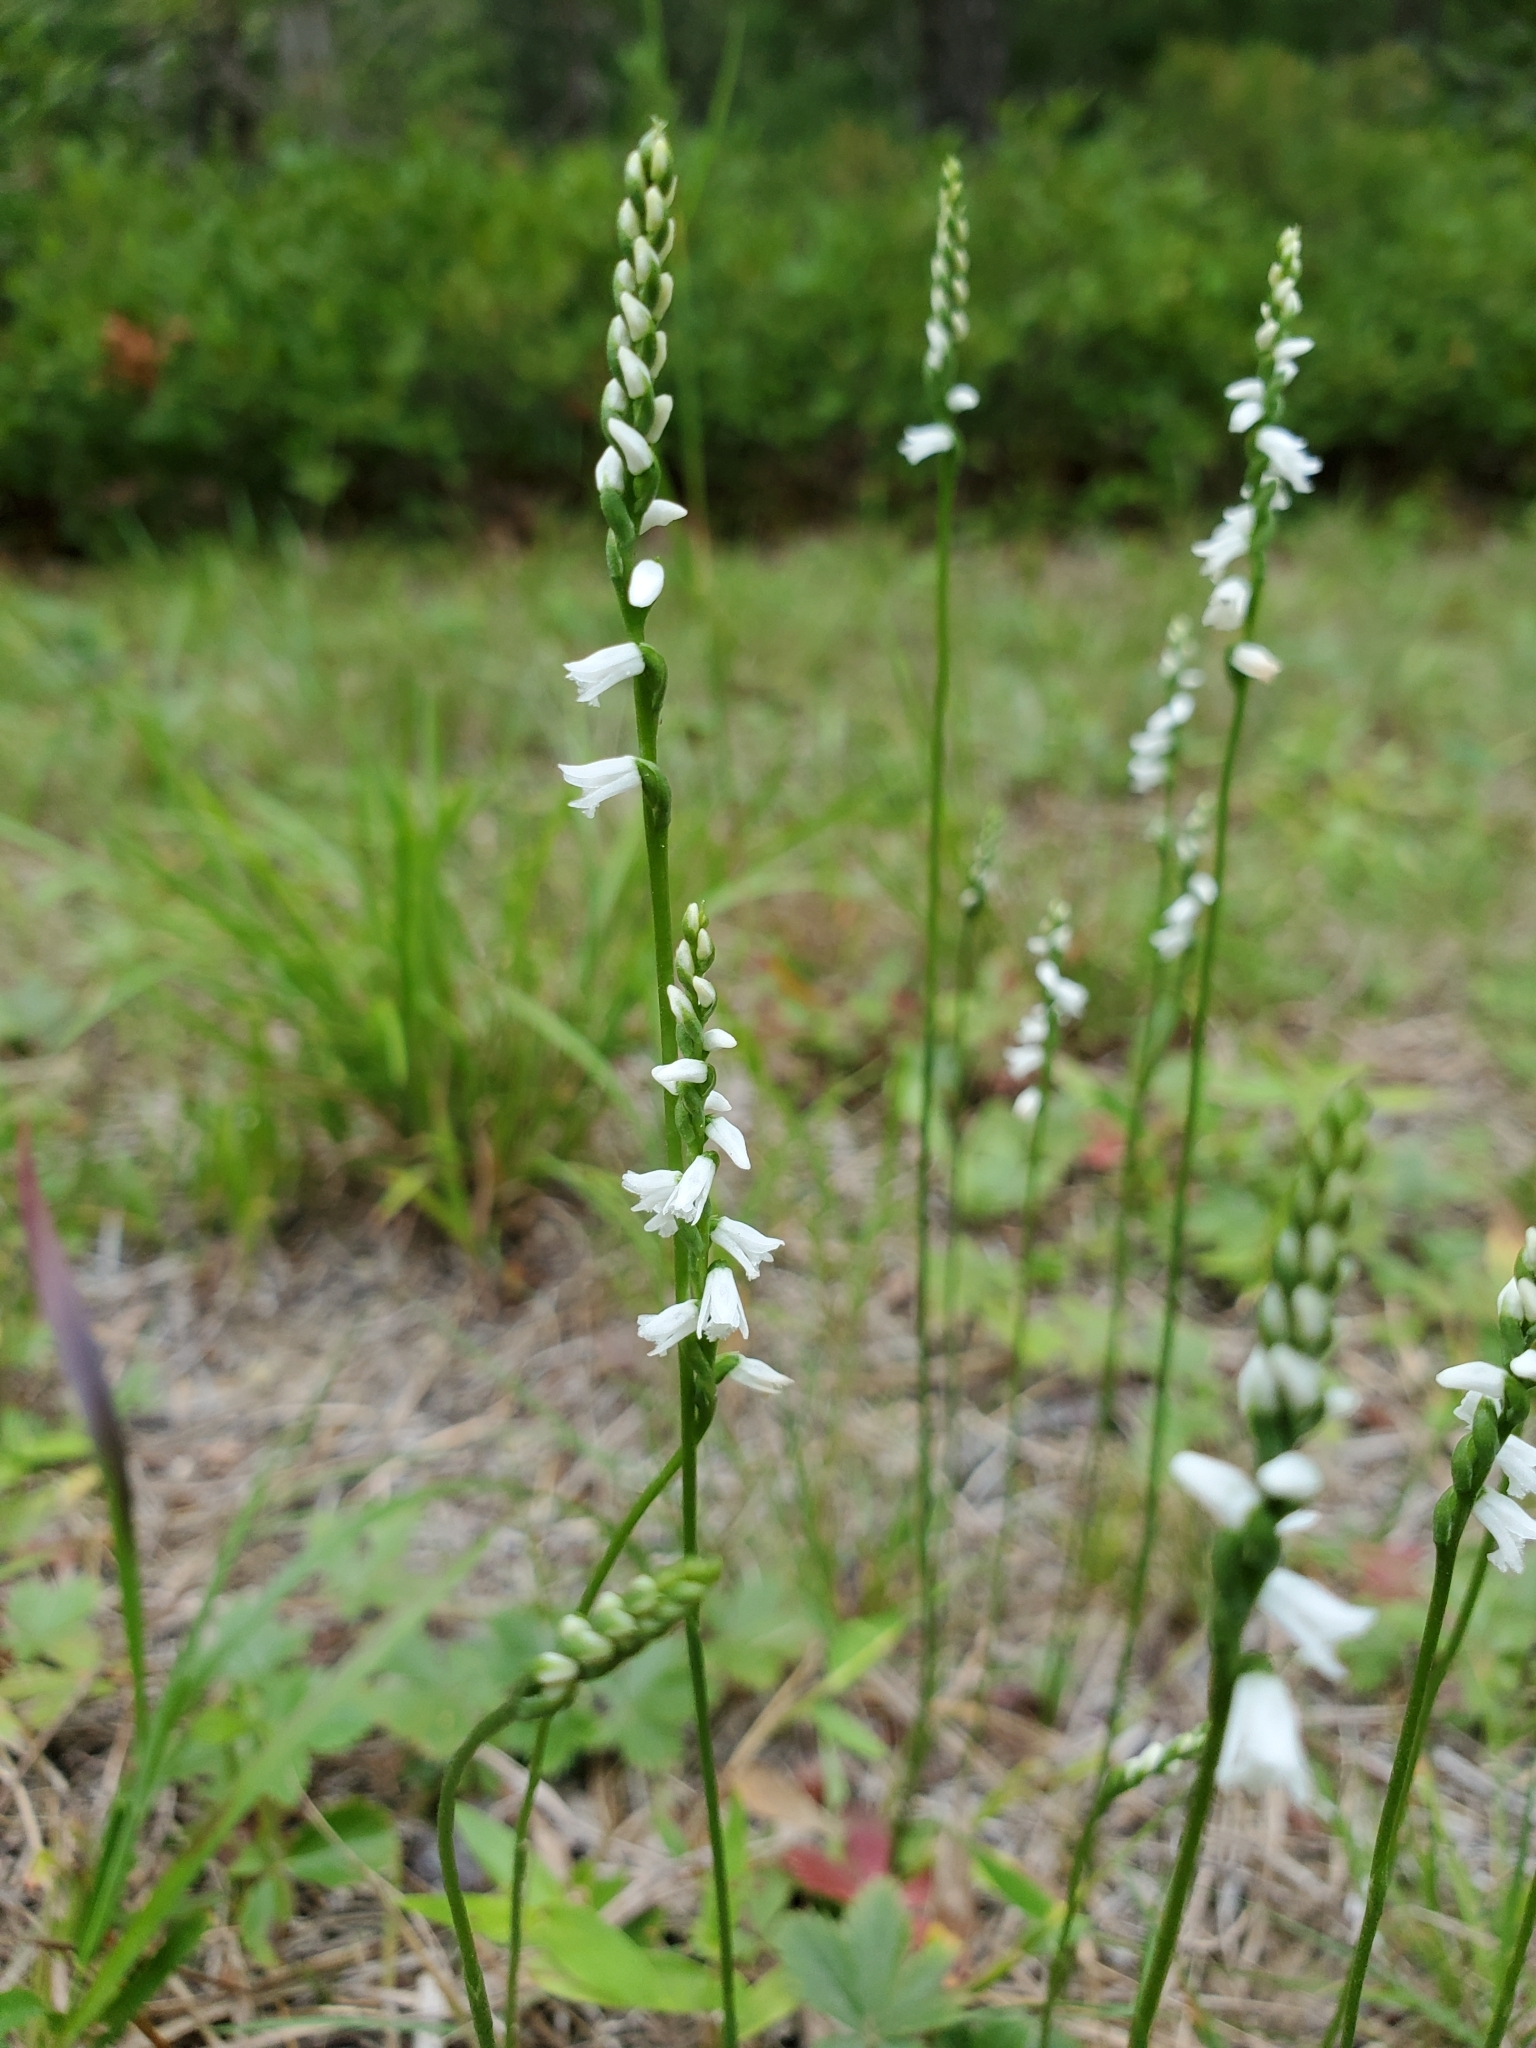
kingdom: Plantae
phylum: Tracheophyta
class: Liliopsida
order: Asparagales
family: Orchidaceae
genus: Spiranthes
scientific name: Spiranthes tuberosa
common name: Little ladies'-tresses
